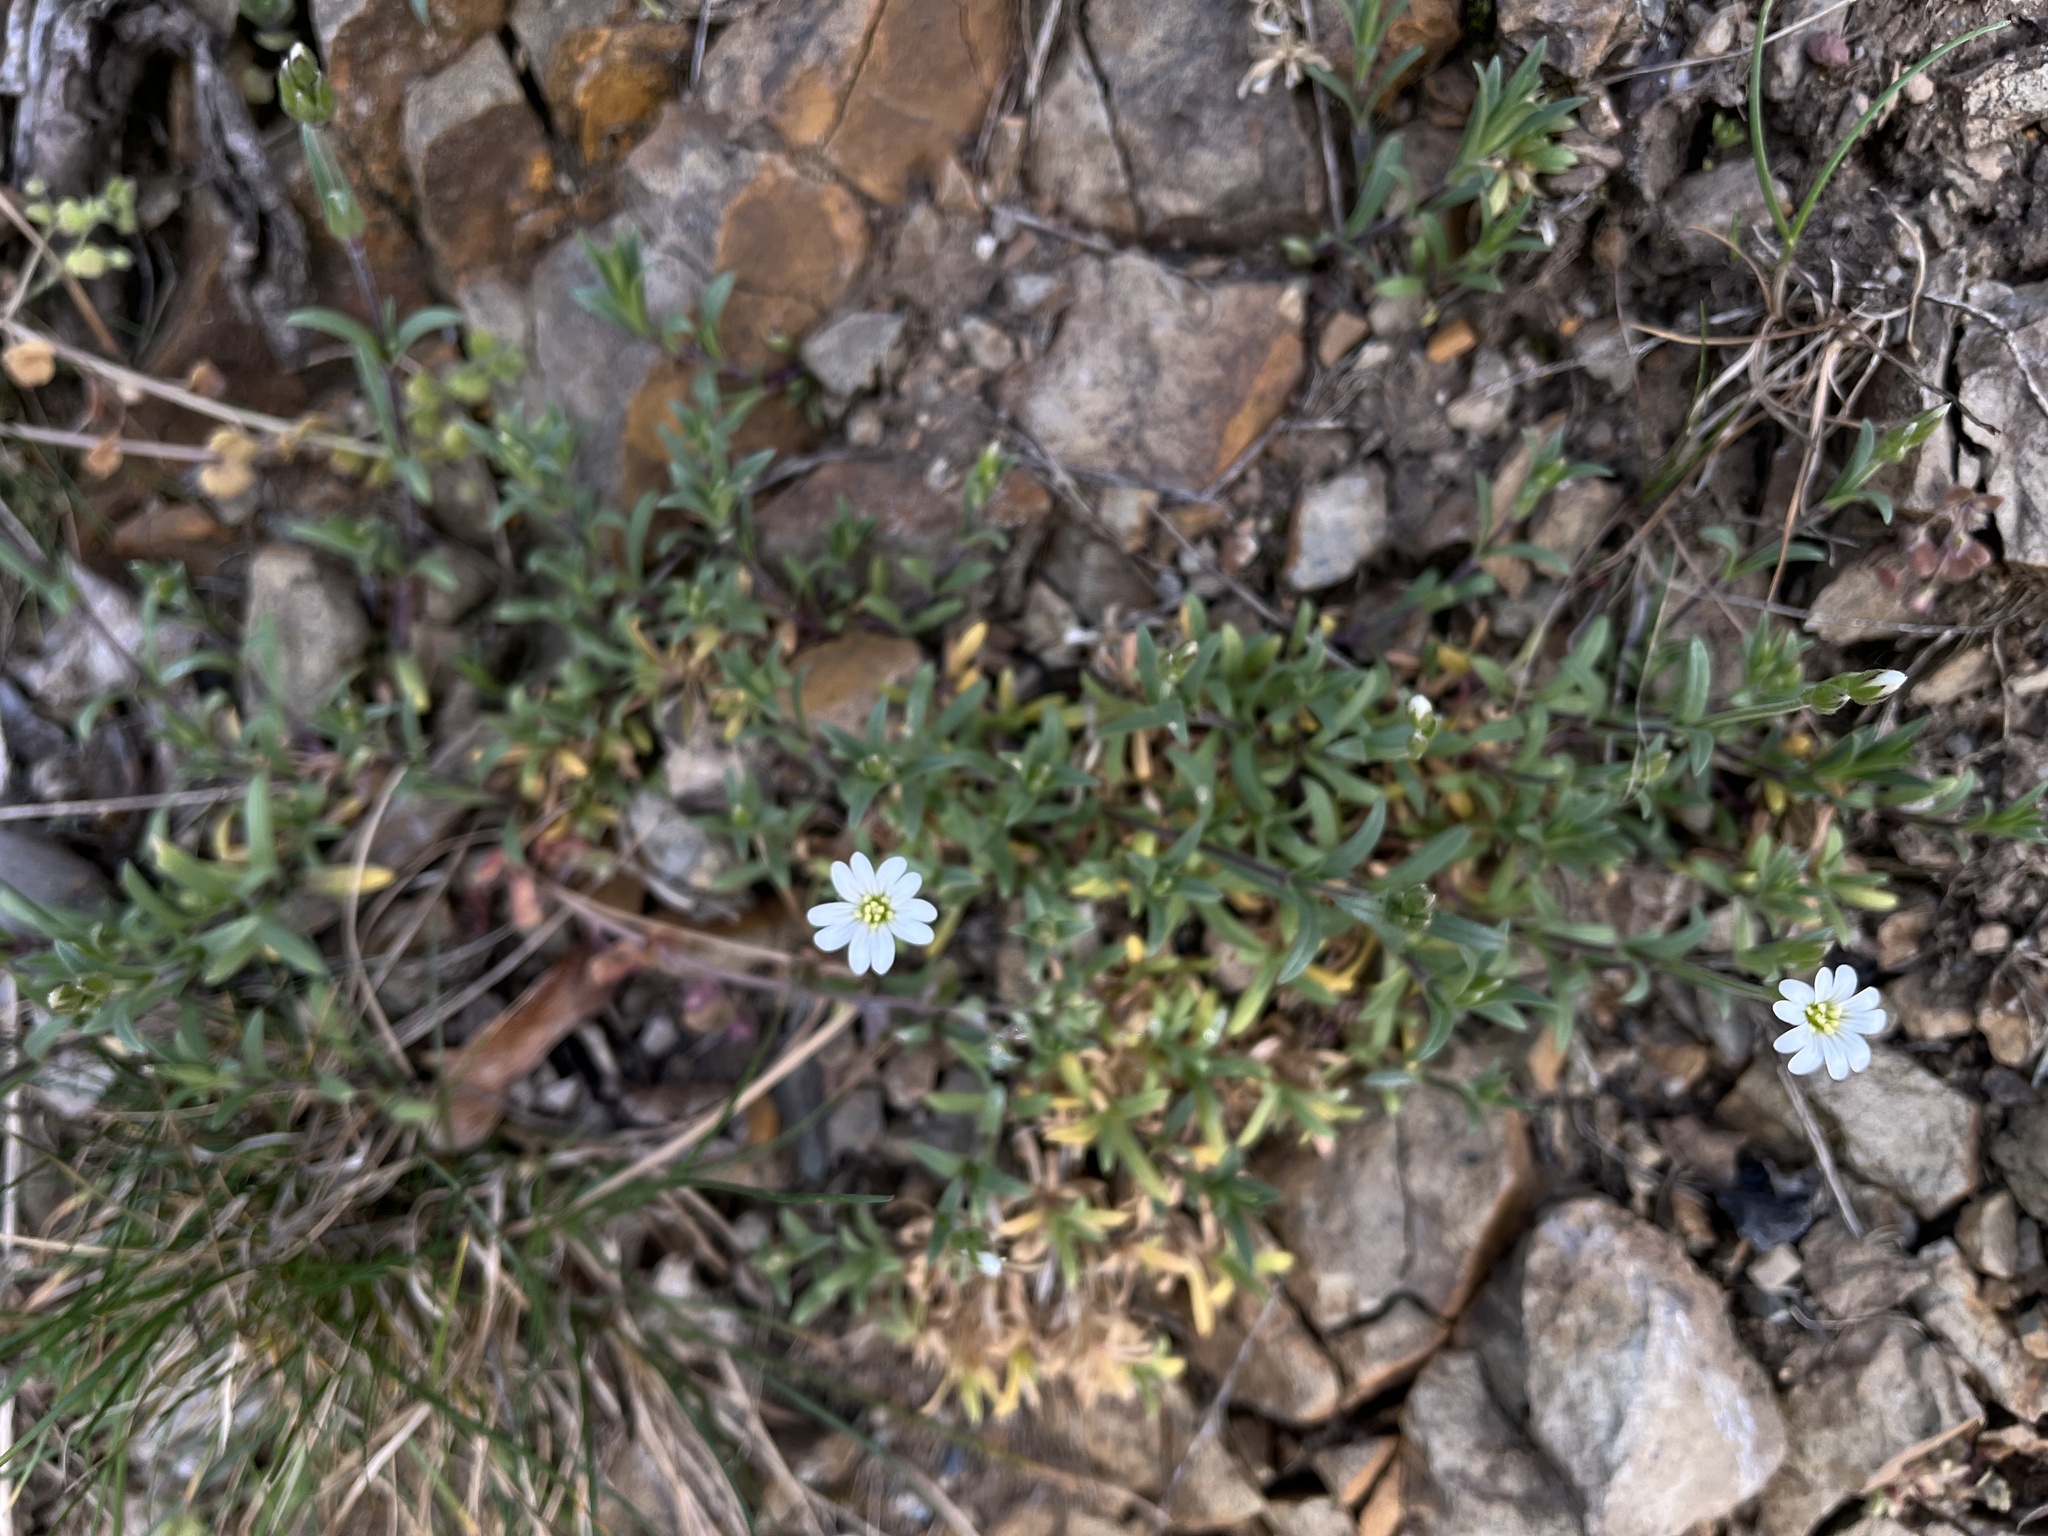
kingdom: Plantae
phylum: Tracheophyta
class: Magnoliopsida
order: Caryophyllales
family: Caryophyllaceae
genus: Cerastium
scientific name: Cerastium arvense
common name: Field mouse-ear
